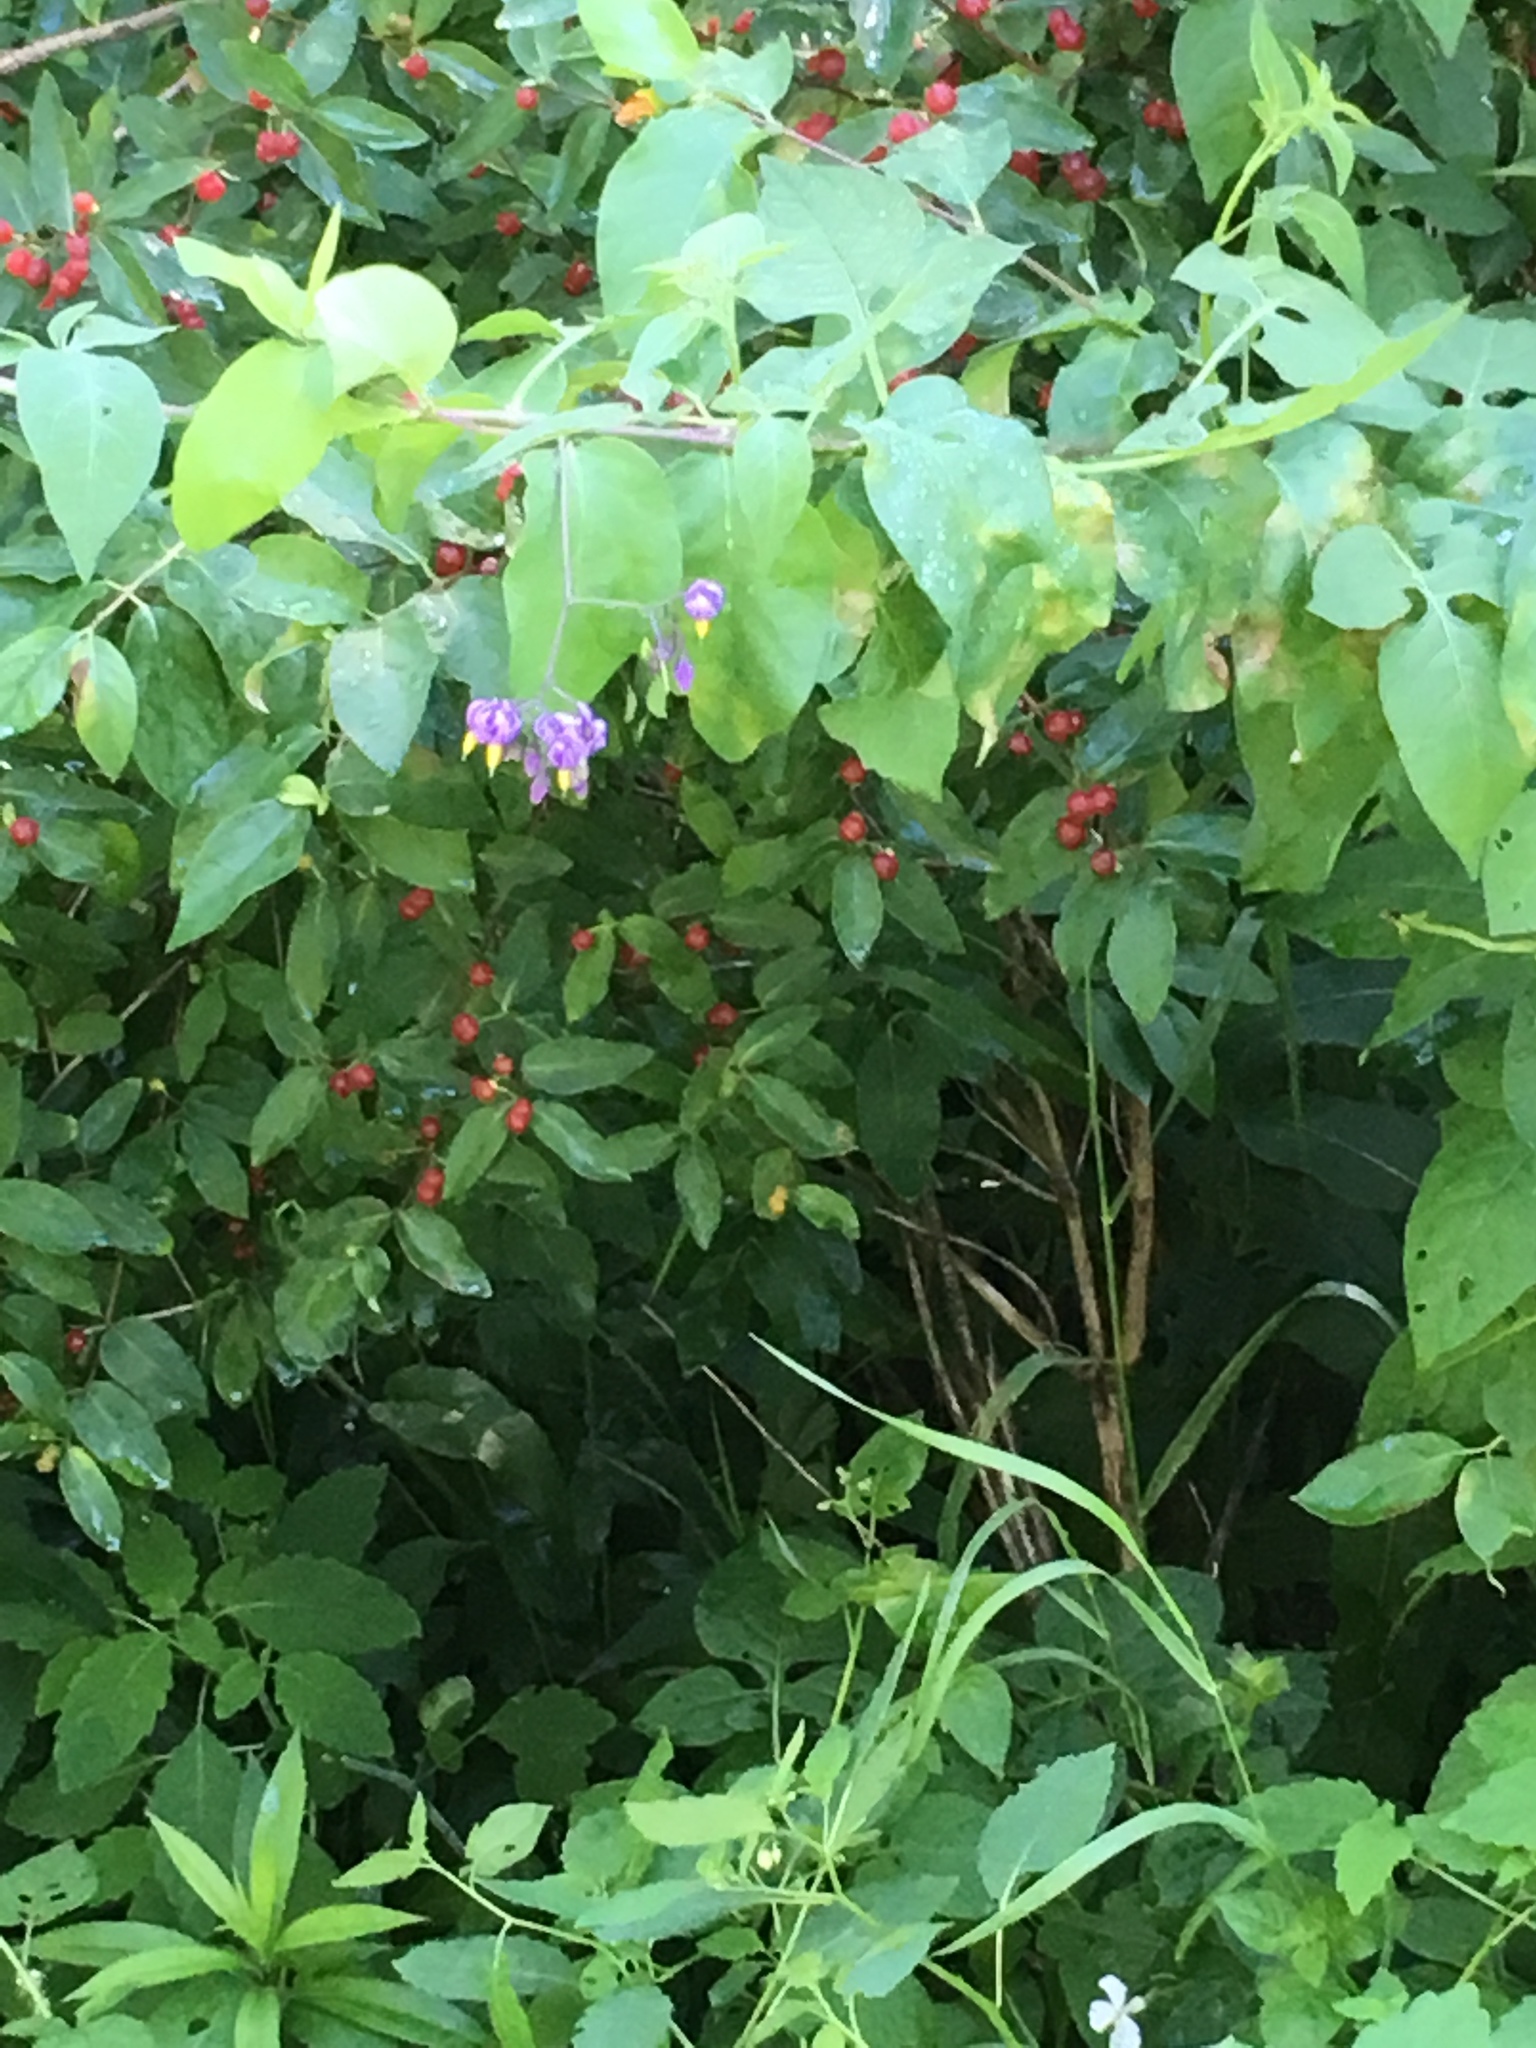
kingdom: Plantae
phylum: Tracheophyta
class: Magnoliopsida
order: Solanales
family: Solanaceae
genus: Solanum
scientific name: Solanum dulcamara
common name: Climbing nightshade
